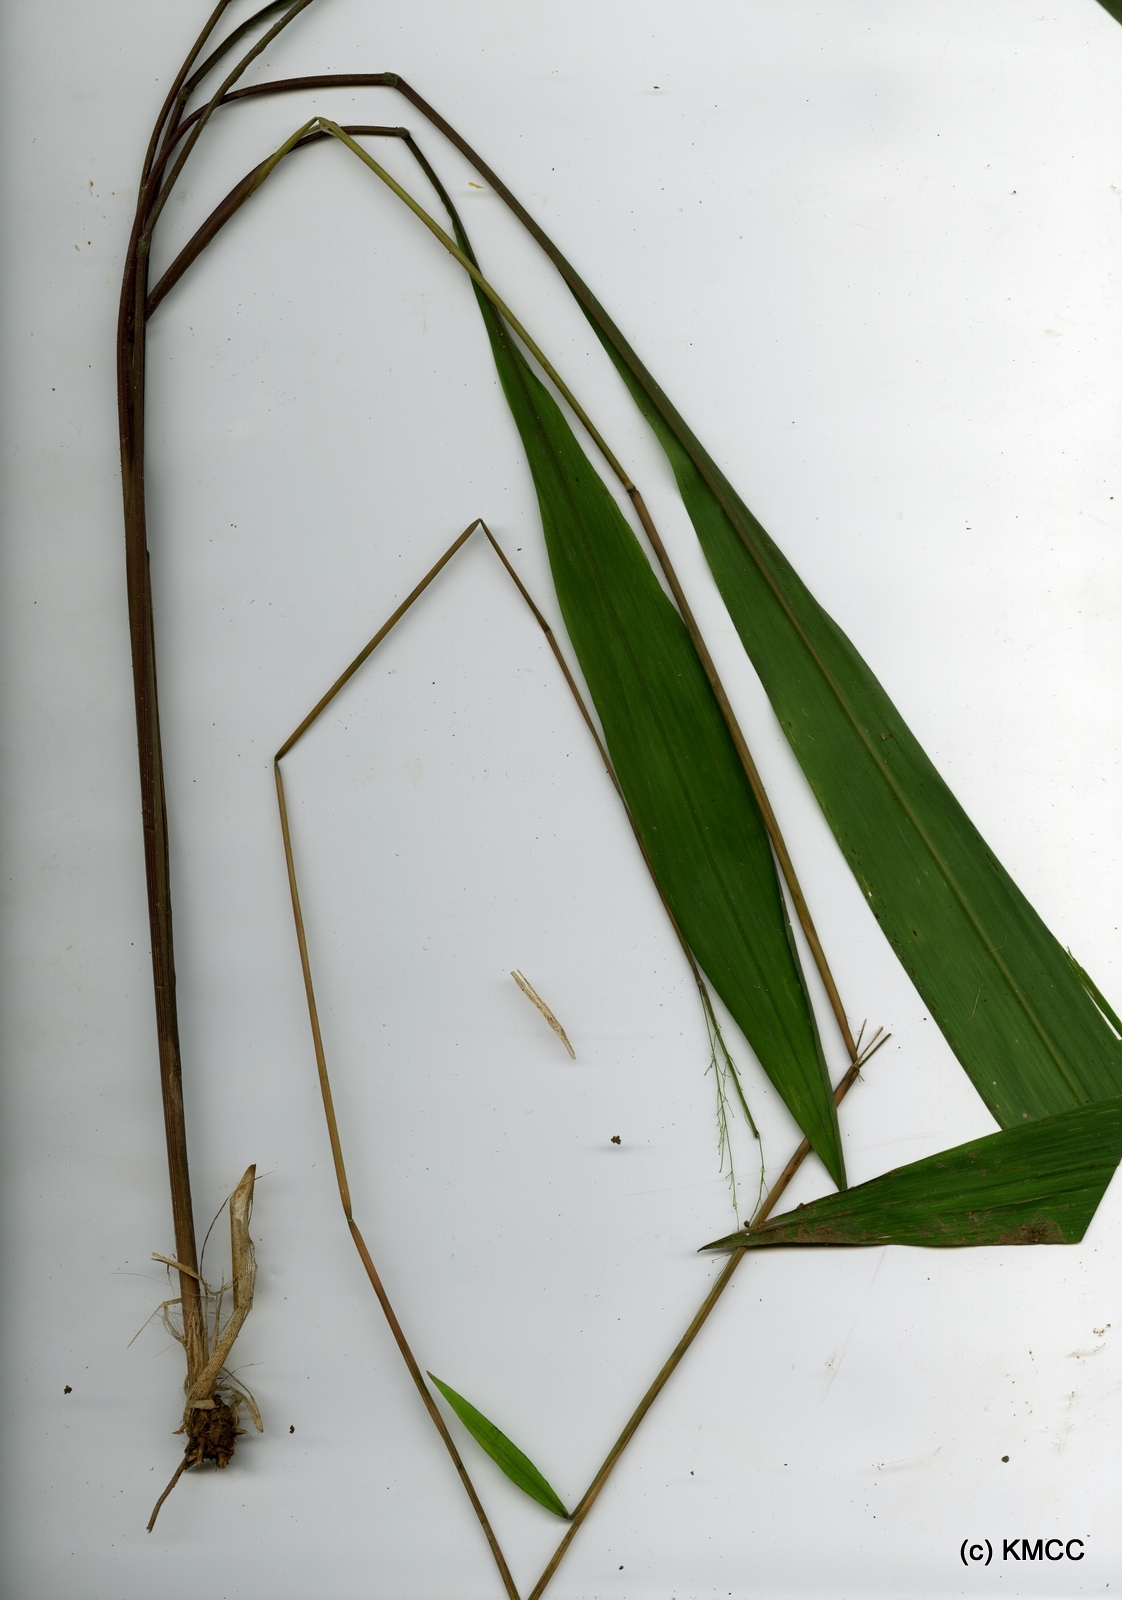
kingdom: Plantae
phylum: Tracheophyta
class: Liliopsida
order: Poales
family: Poaceae
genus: Maltebrunia
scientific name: Maltebrunia leersioides
